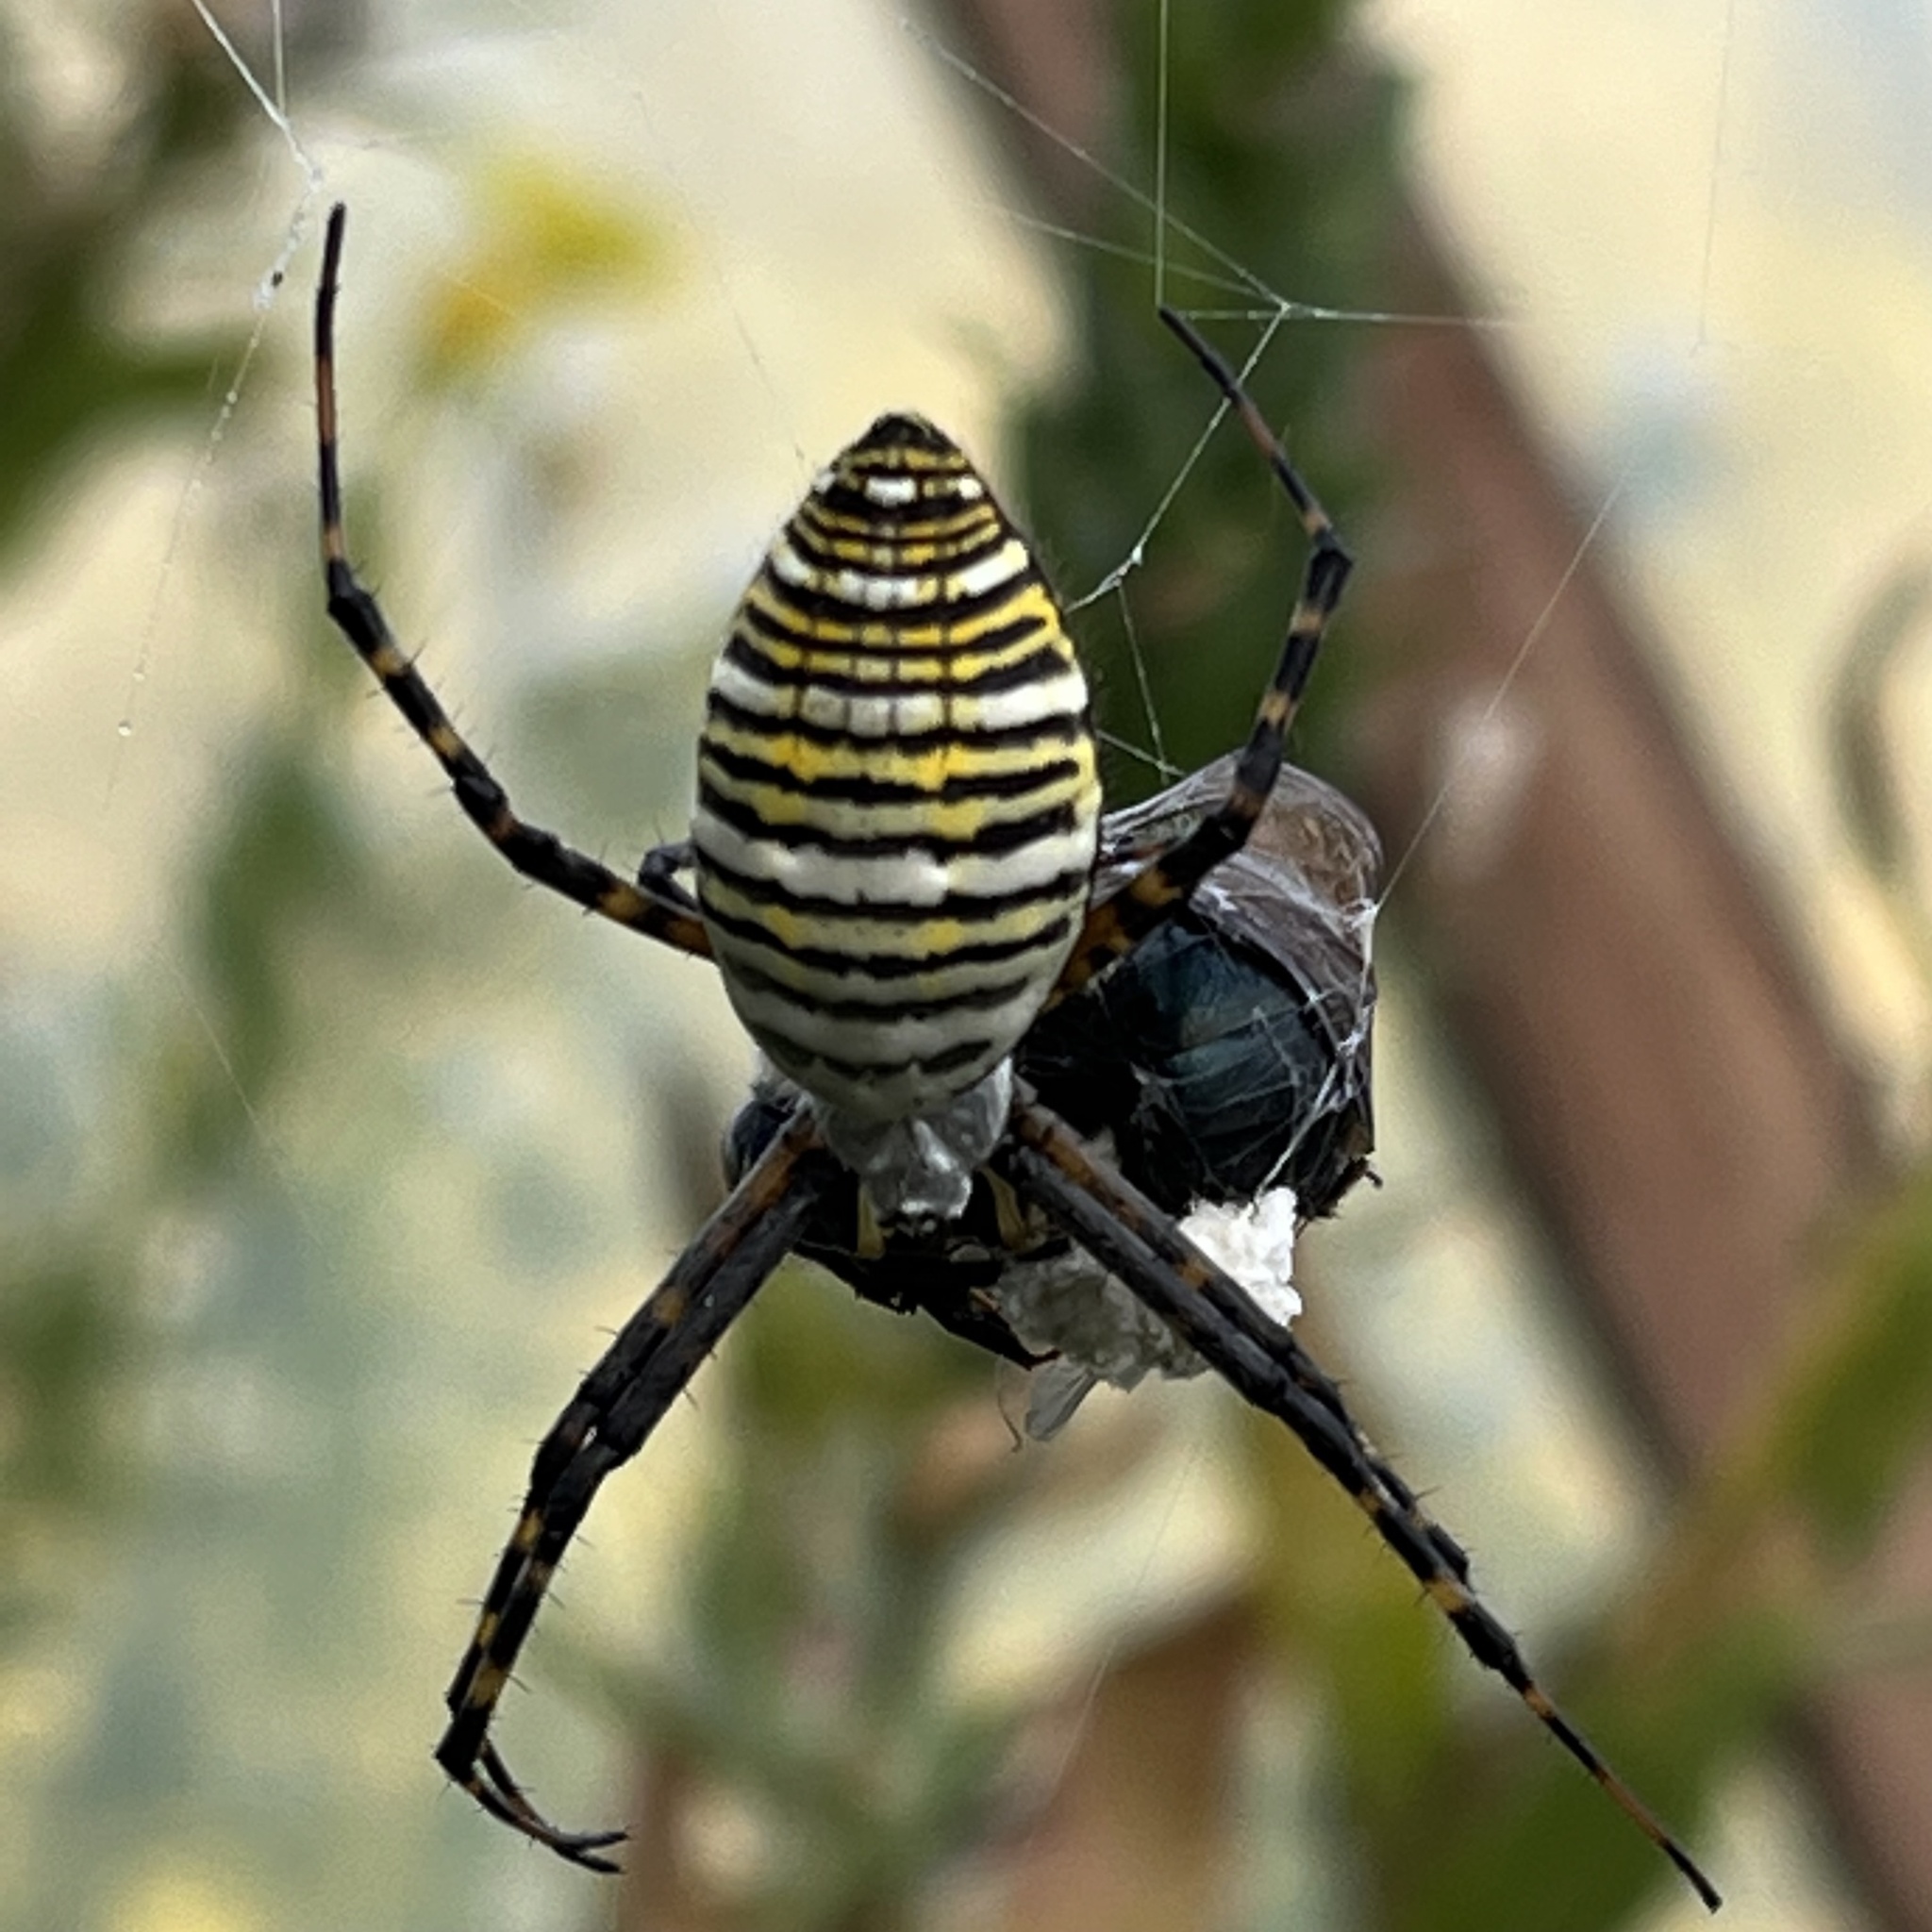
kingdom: Animalia
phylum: Arthropoda
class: Arachnida
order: Araneae
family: Araneidae
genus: Argiope
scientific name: Argiope trifasciata
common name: Banded garden spider
